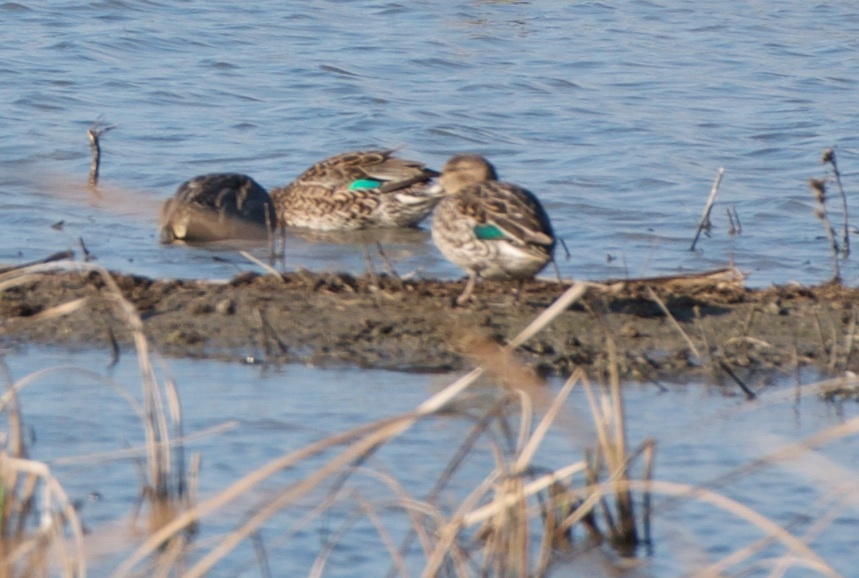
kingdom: Animalia
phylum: Chordata
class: Aves
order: Anseriformes
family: Anatidae
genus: Anas
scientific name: Anas crecca
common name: Eurasian teal
